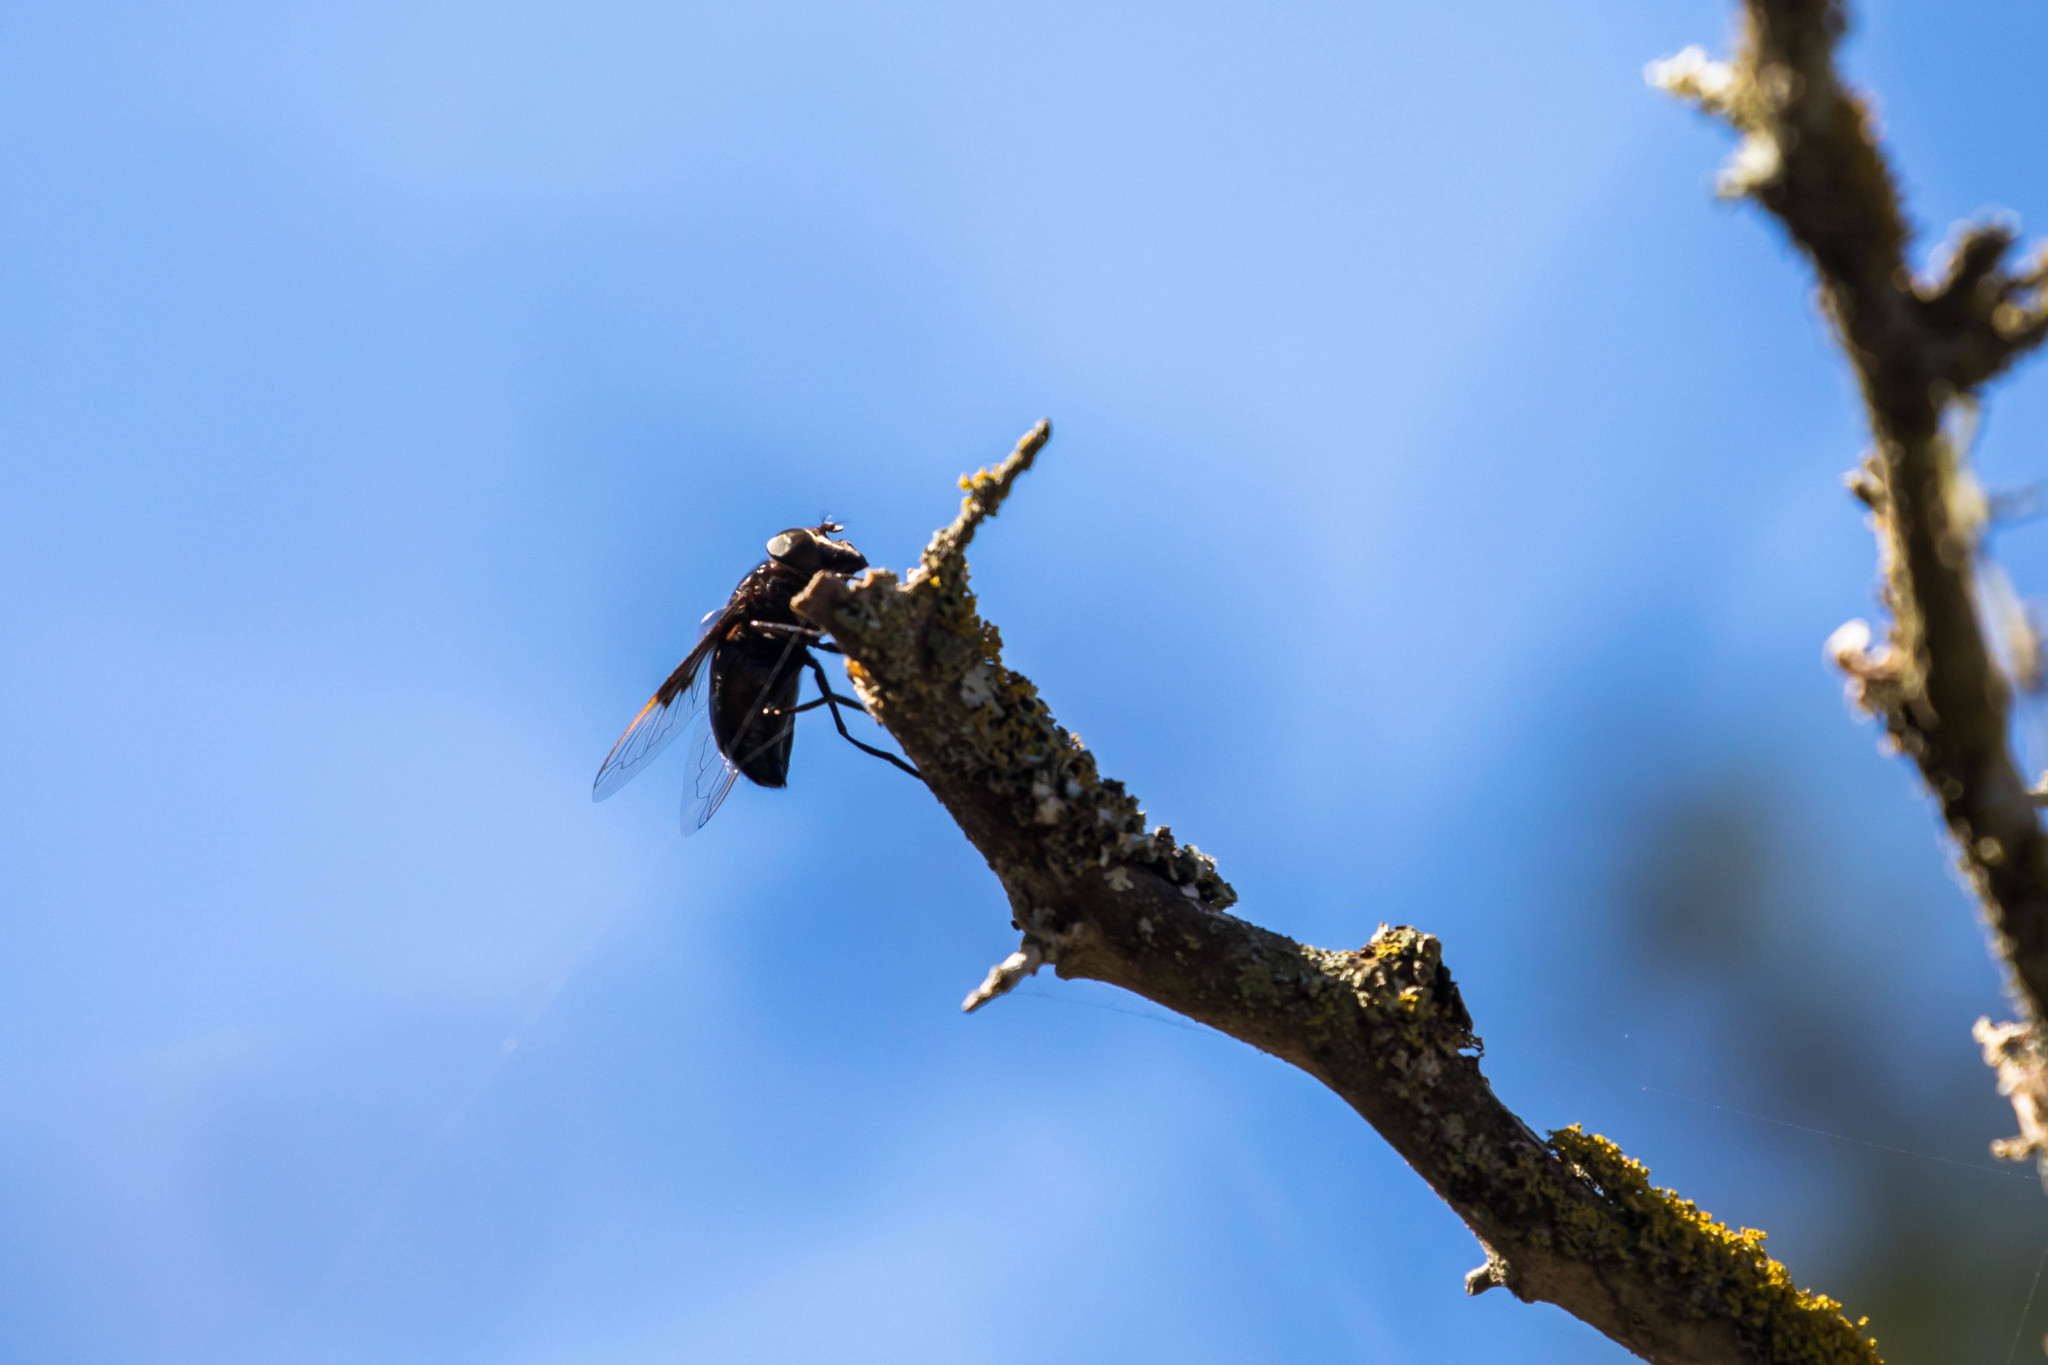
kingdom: Animalia
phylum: Arthropoda
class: Insecta
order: Diptera
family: Syrphidae
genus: Copestylum
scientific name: Copestylum
